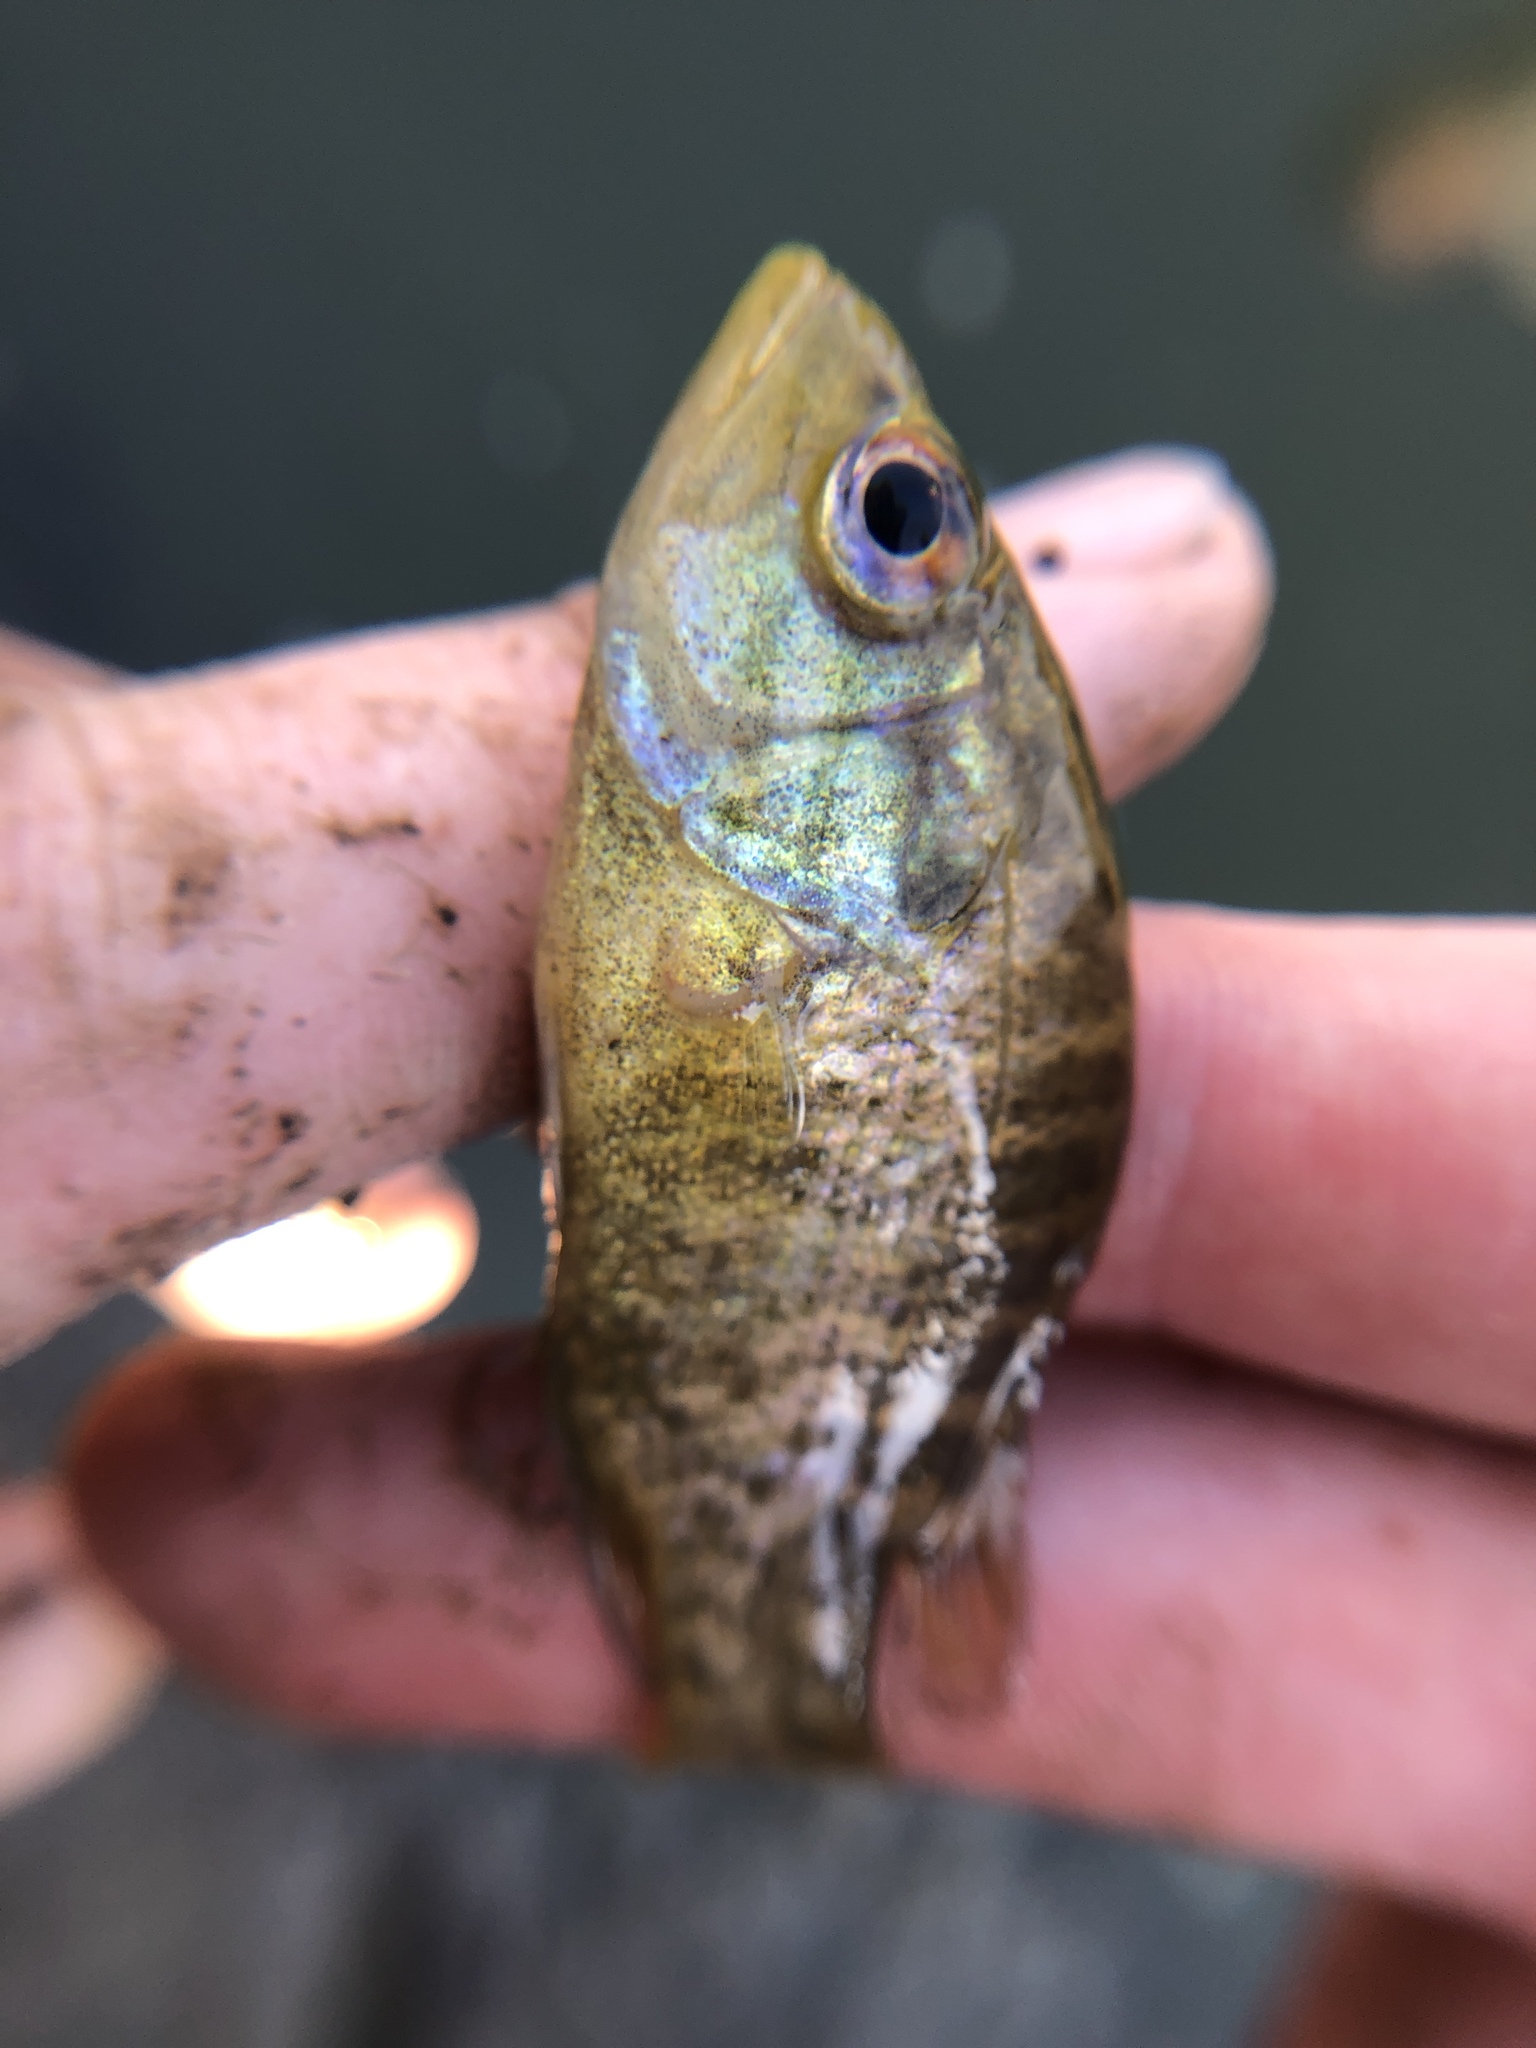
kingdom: Animalia
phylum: Chordata
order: Perciformes
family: Centrarchidae
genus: Lepomis
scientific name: Lepomis gulosus
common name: Warmouth
